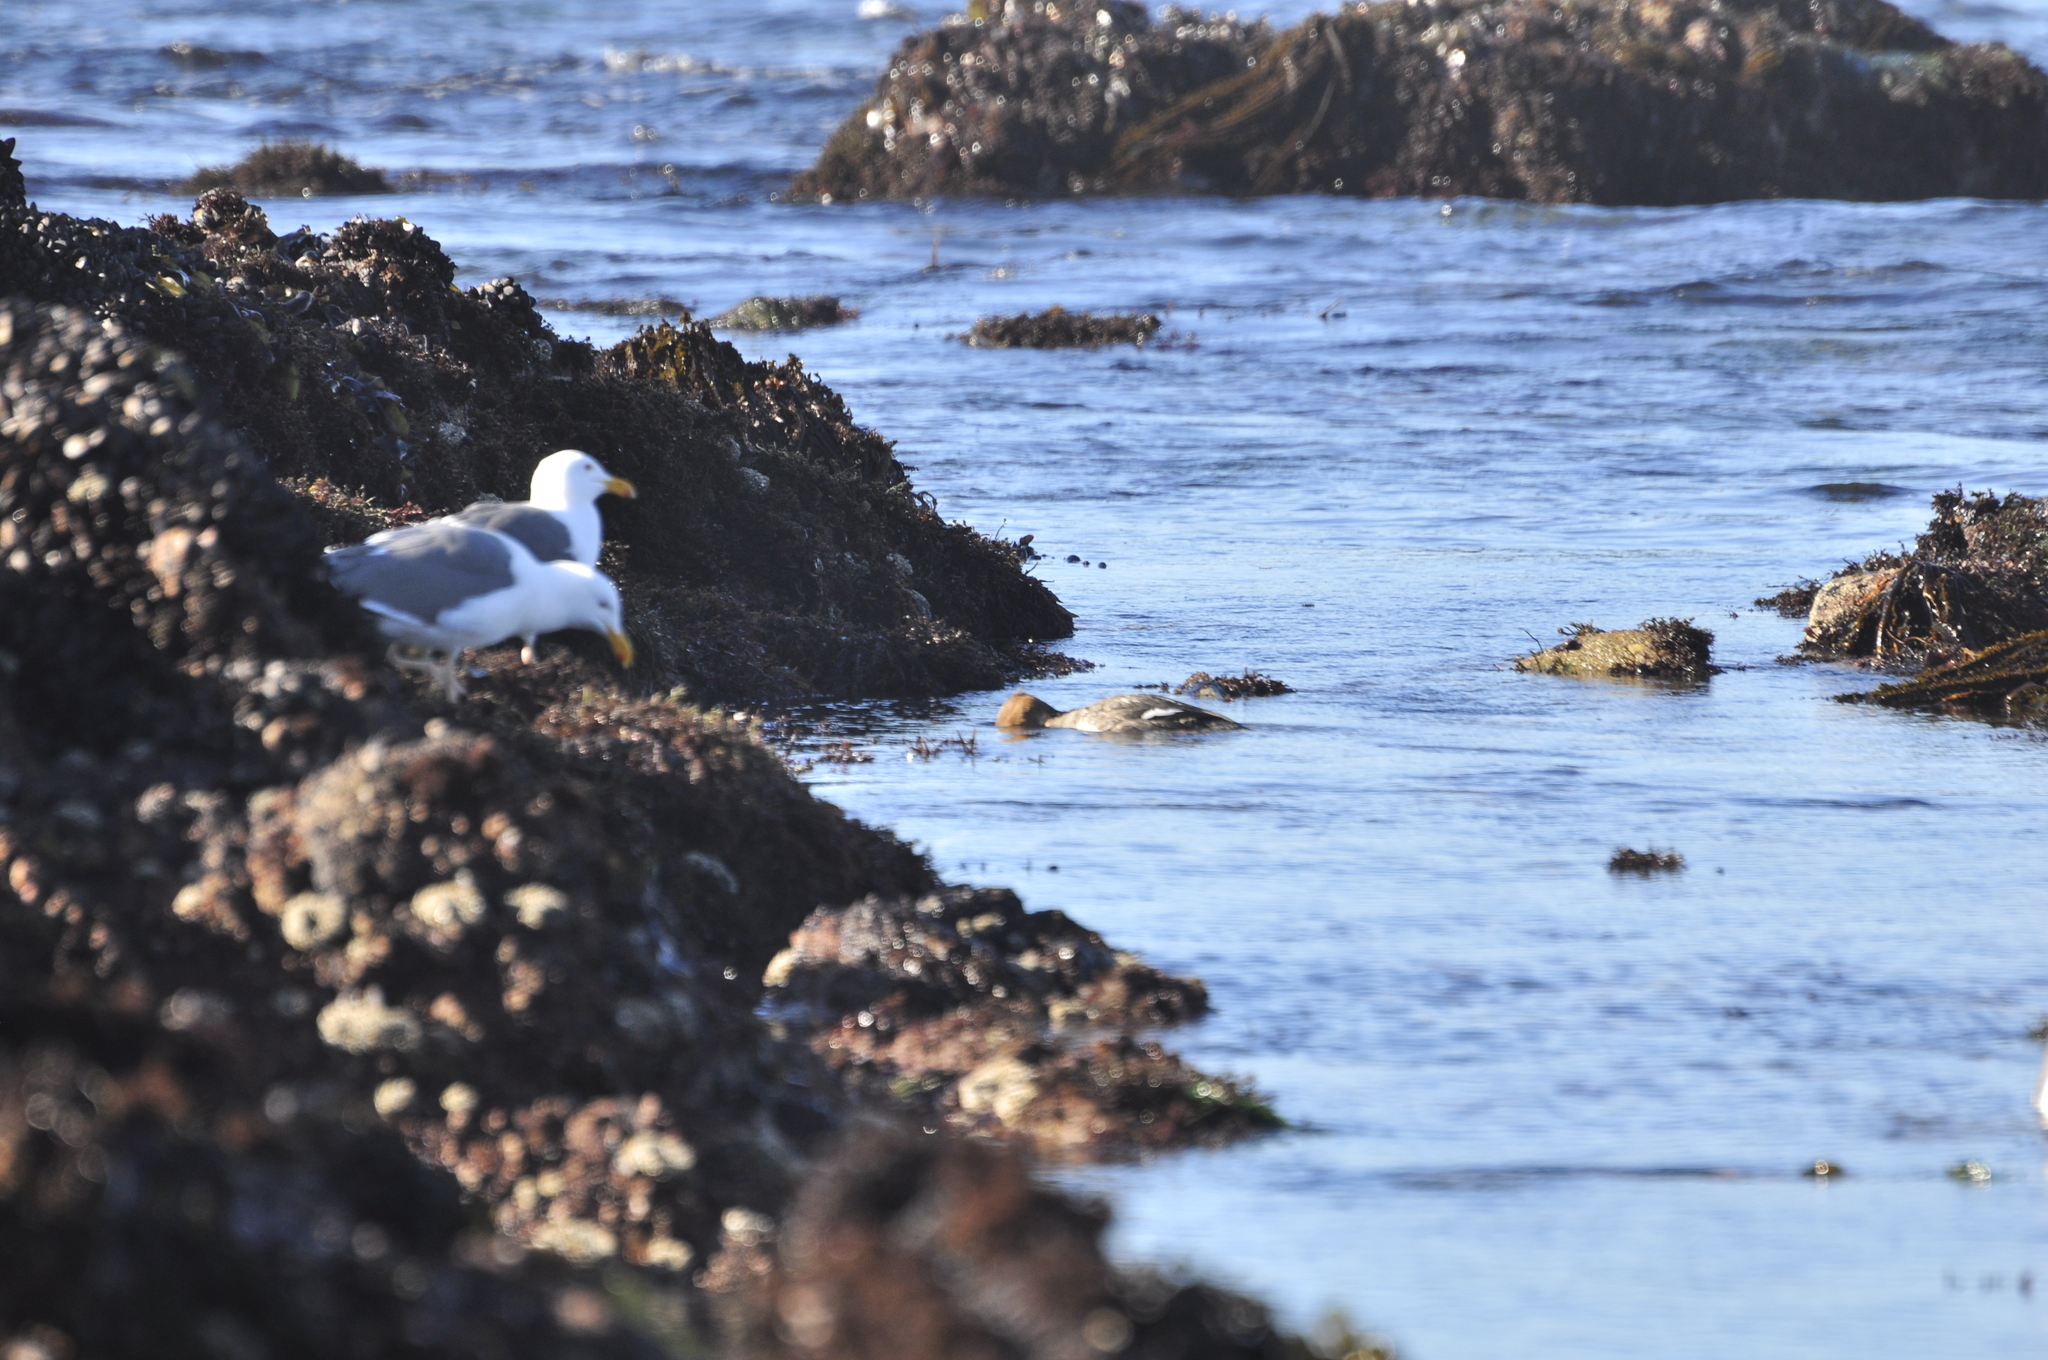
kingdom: Animalia
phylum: Chordata
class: Aves
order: Anseriformes
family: Anatidae
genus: Mergus
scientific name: Mergus serrator
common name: Red-breasted merganser
